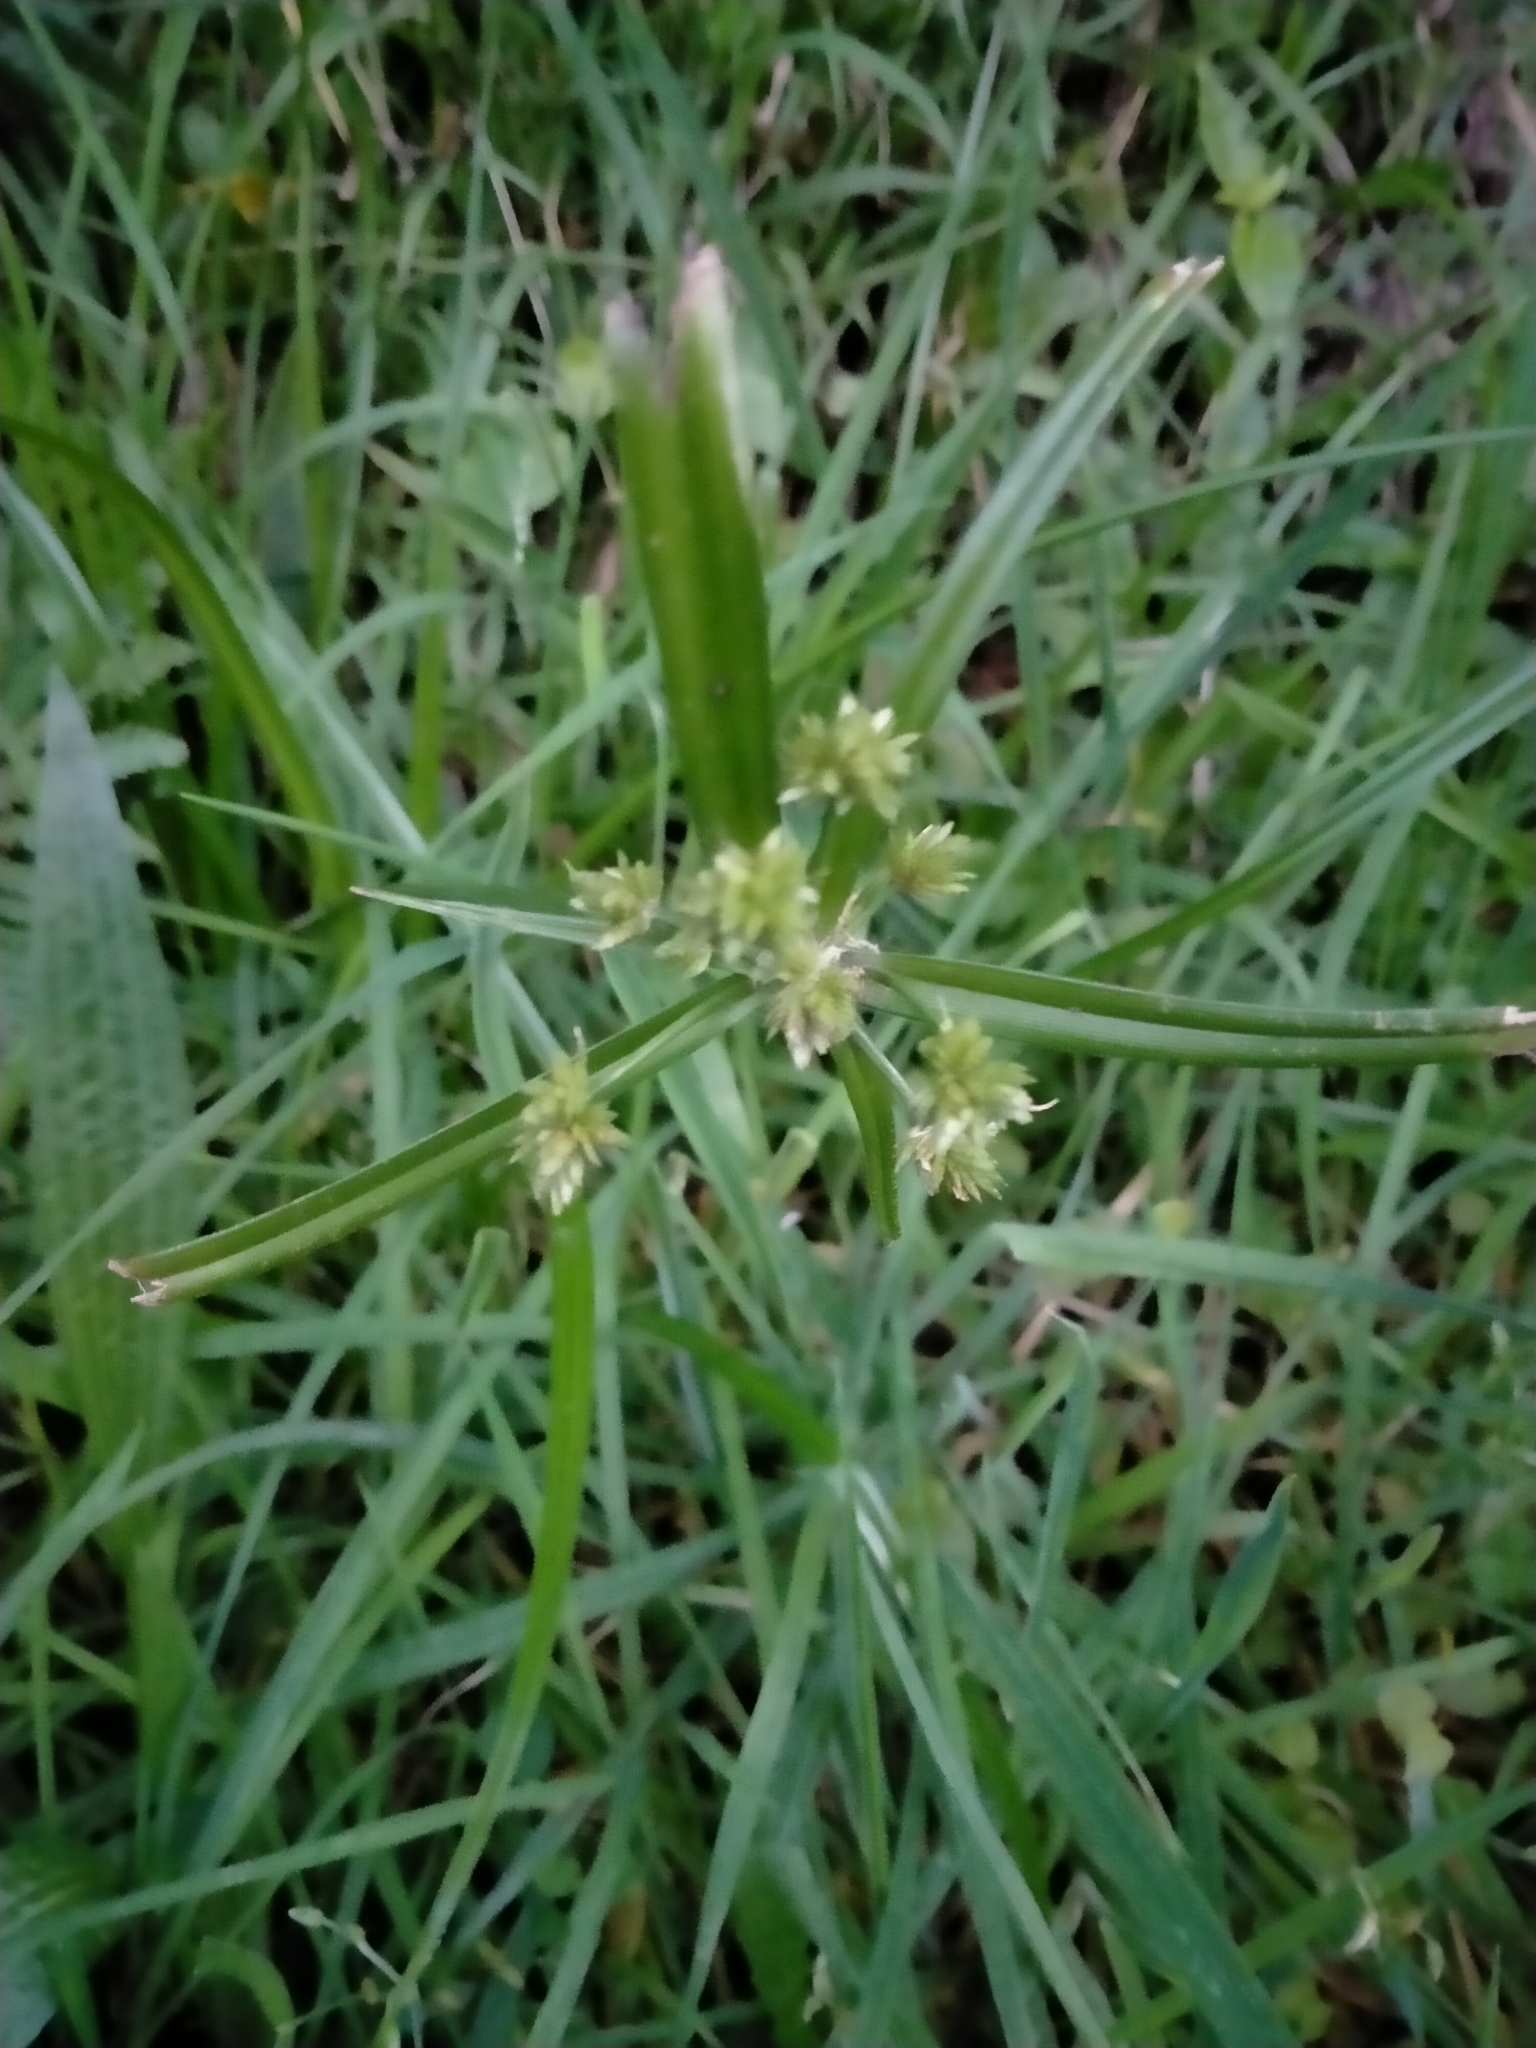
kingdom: Plantae
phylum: Tracheophyta
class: Liliopsida
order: Poales
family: Cyperaceae
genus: Cyperus
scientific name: Cyperus eragrostis
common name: Tall flatsedge
